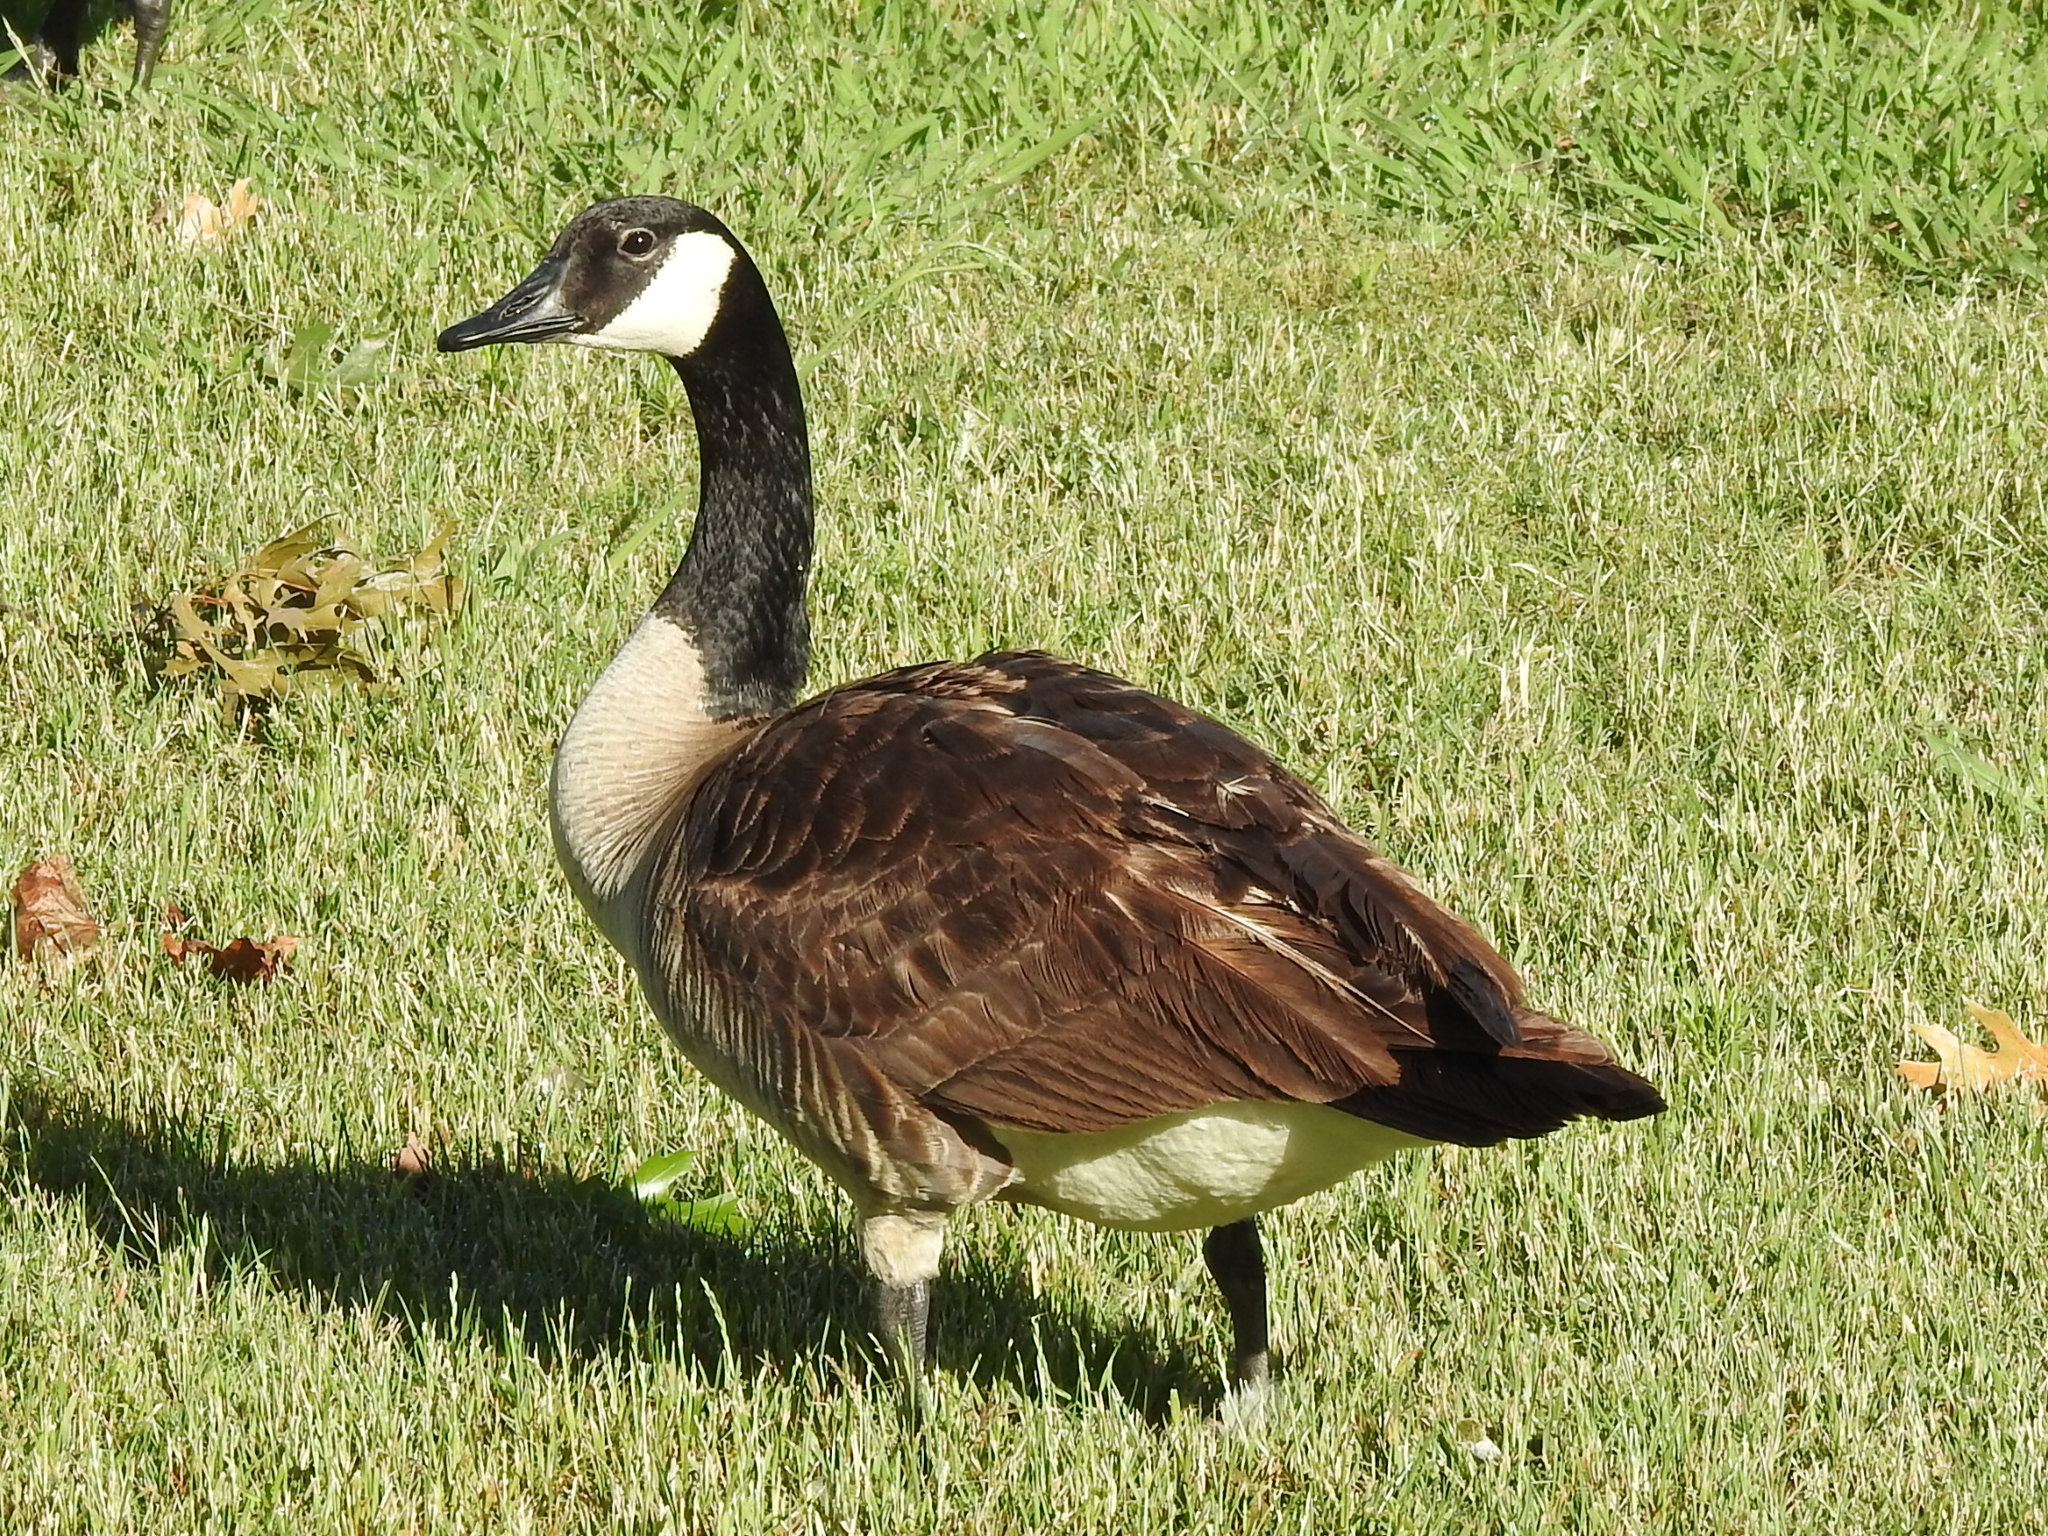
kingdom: Animalia
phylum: Chordata
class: Aves
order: Anseriformes
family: Anatidae
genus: Branta
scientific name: Branta canadensis
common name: Canada goose
